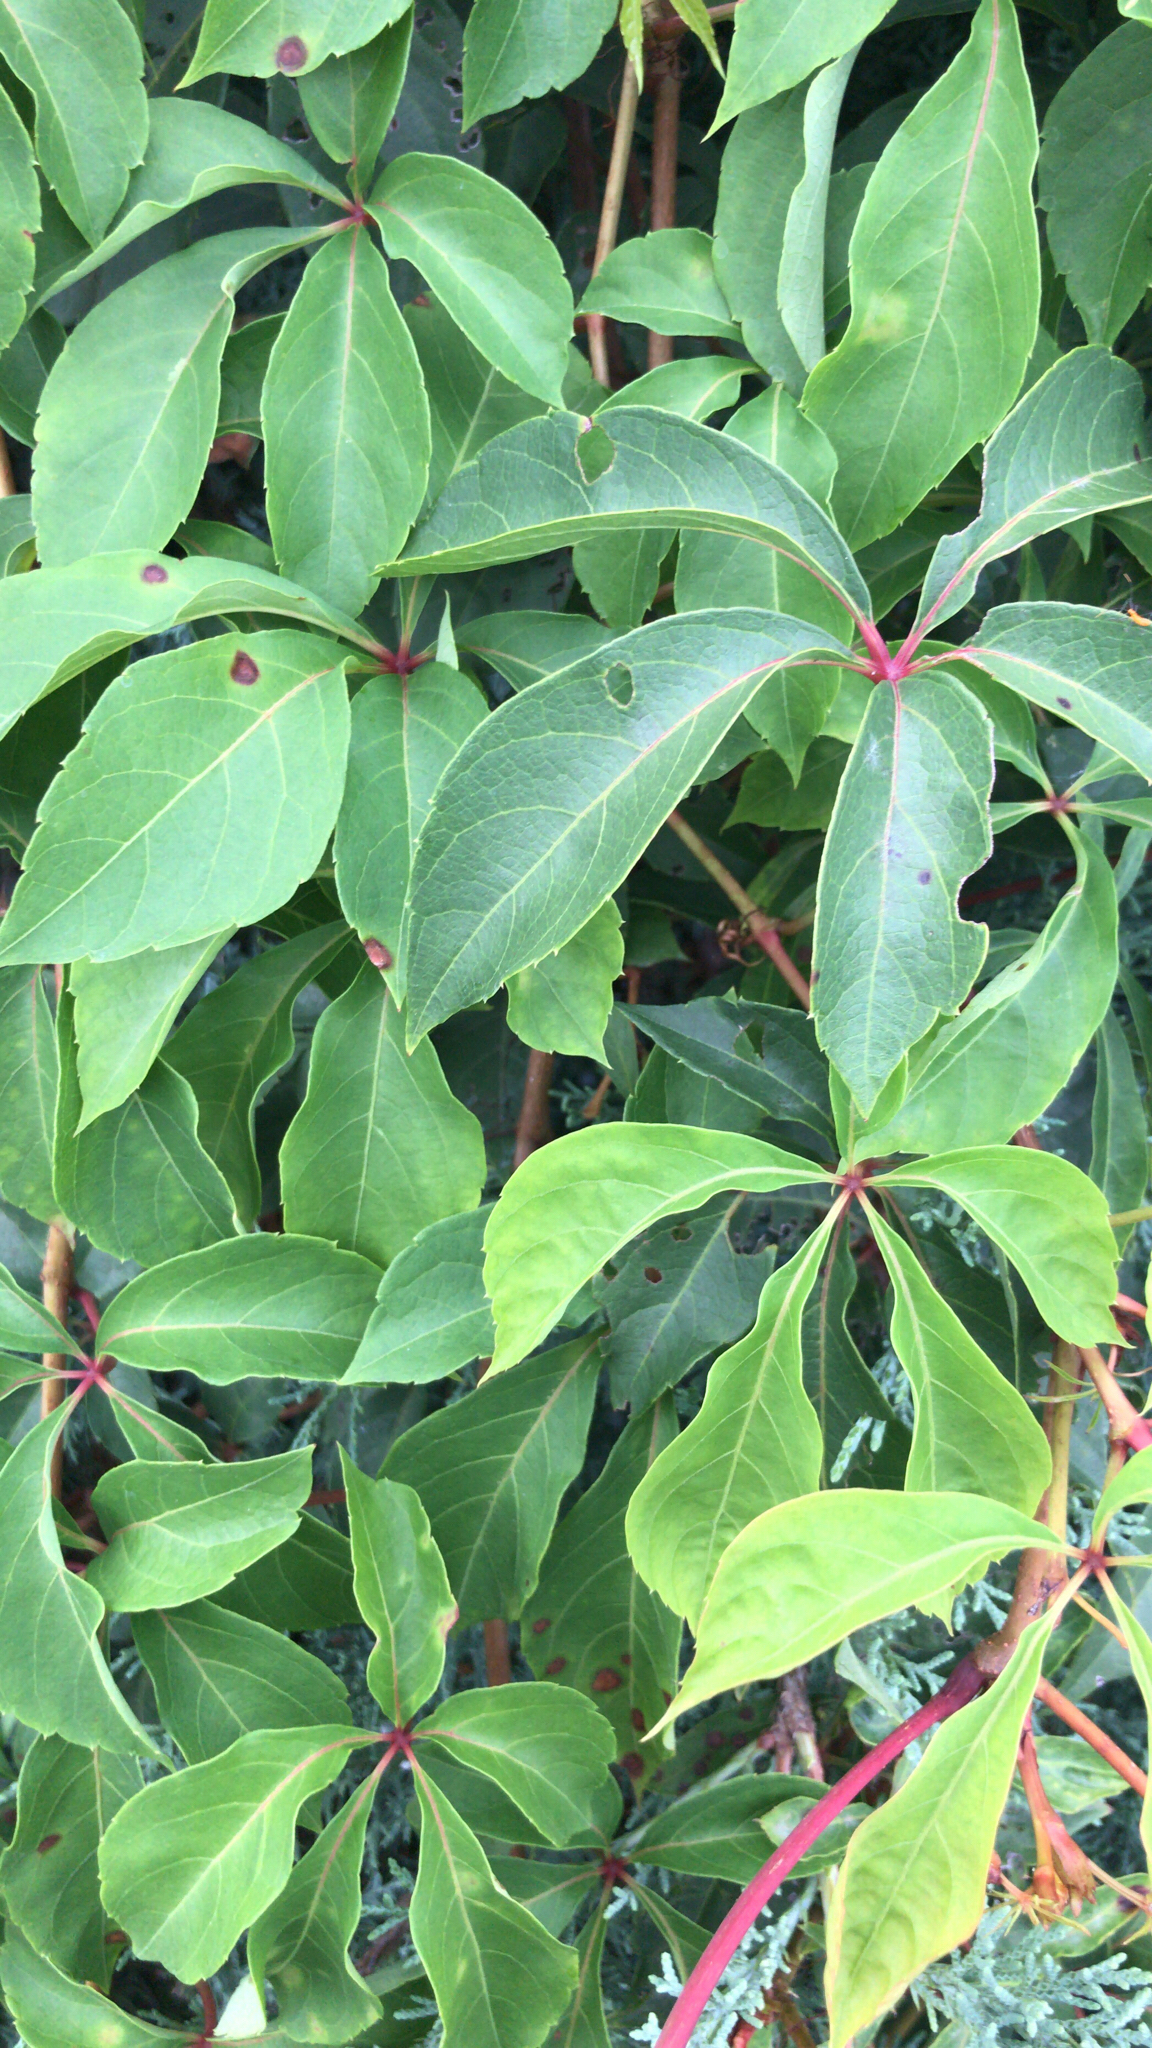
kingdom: Plantae
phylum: Tracheophyta
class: Magnoliopsida
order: Vitales
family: Vitaceae
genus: Parthenocissus
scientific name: Parthenocissus quinquefolia
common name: Virginia-creeper
